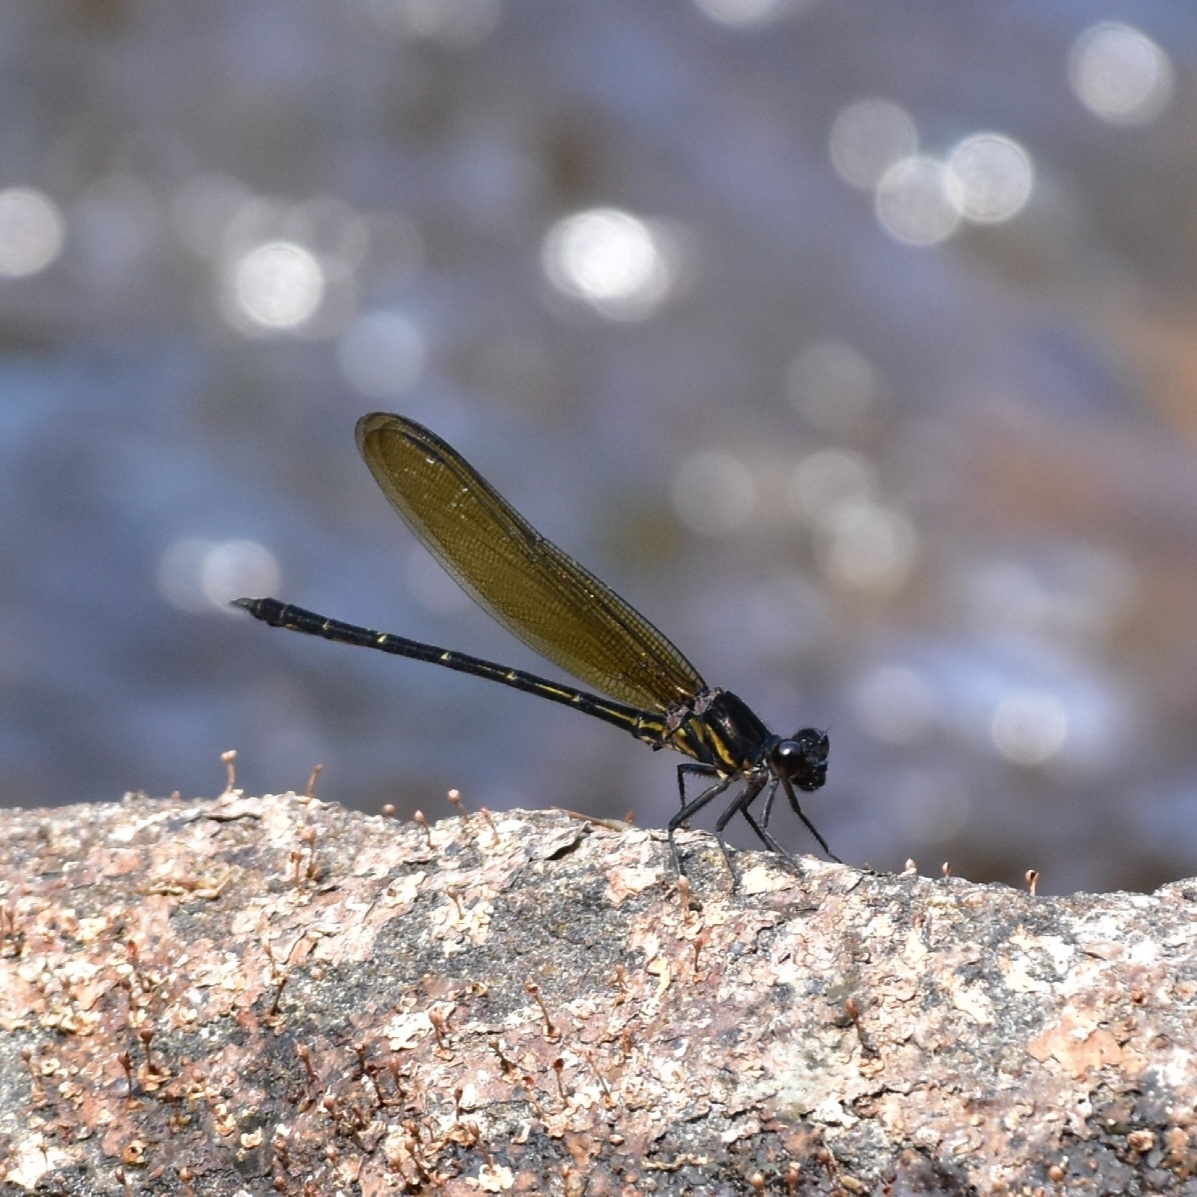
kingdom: Animalia
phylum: Arthropoda
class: Insecta
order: Odonata
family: Euphaeidae
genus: Dysphaea
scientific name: Dysphaea ethela
